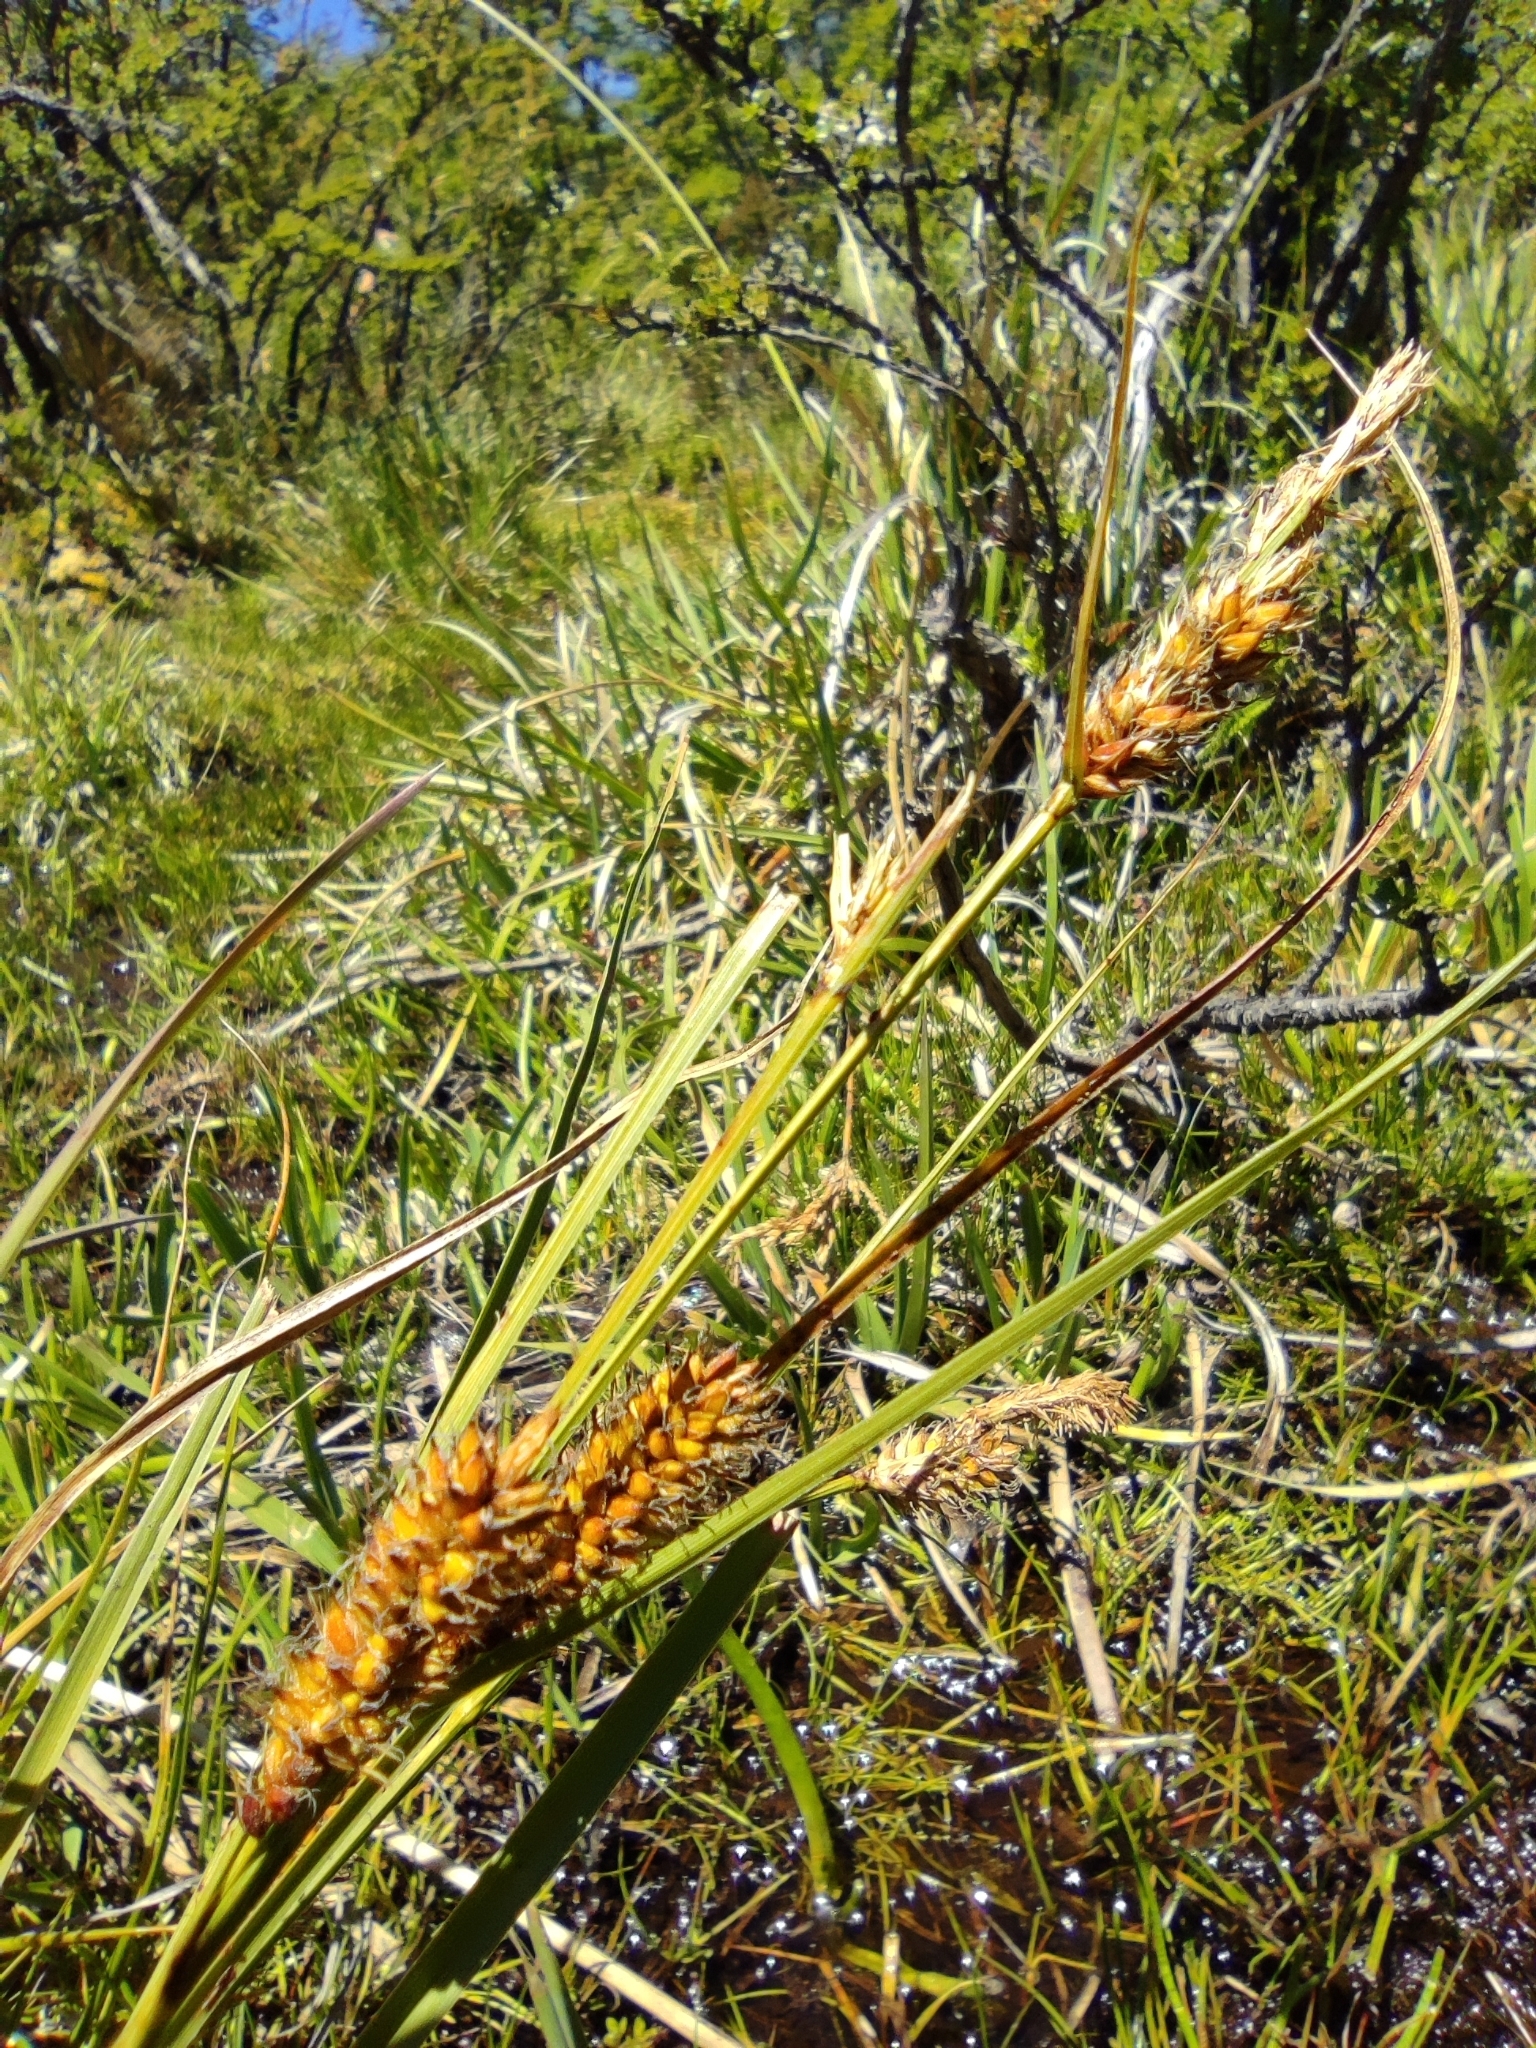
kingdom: Plantae
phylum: Tracheophyta
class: Liliopsida
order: Poales
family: Cyperaceae
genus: Carex
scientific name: Carex aematorhyncha
